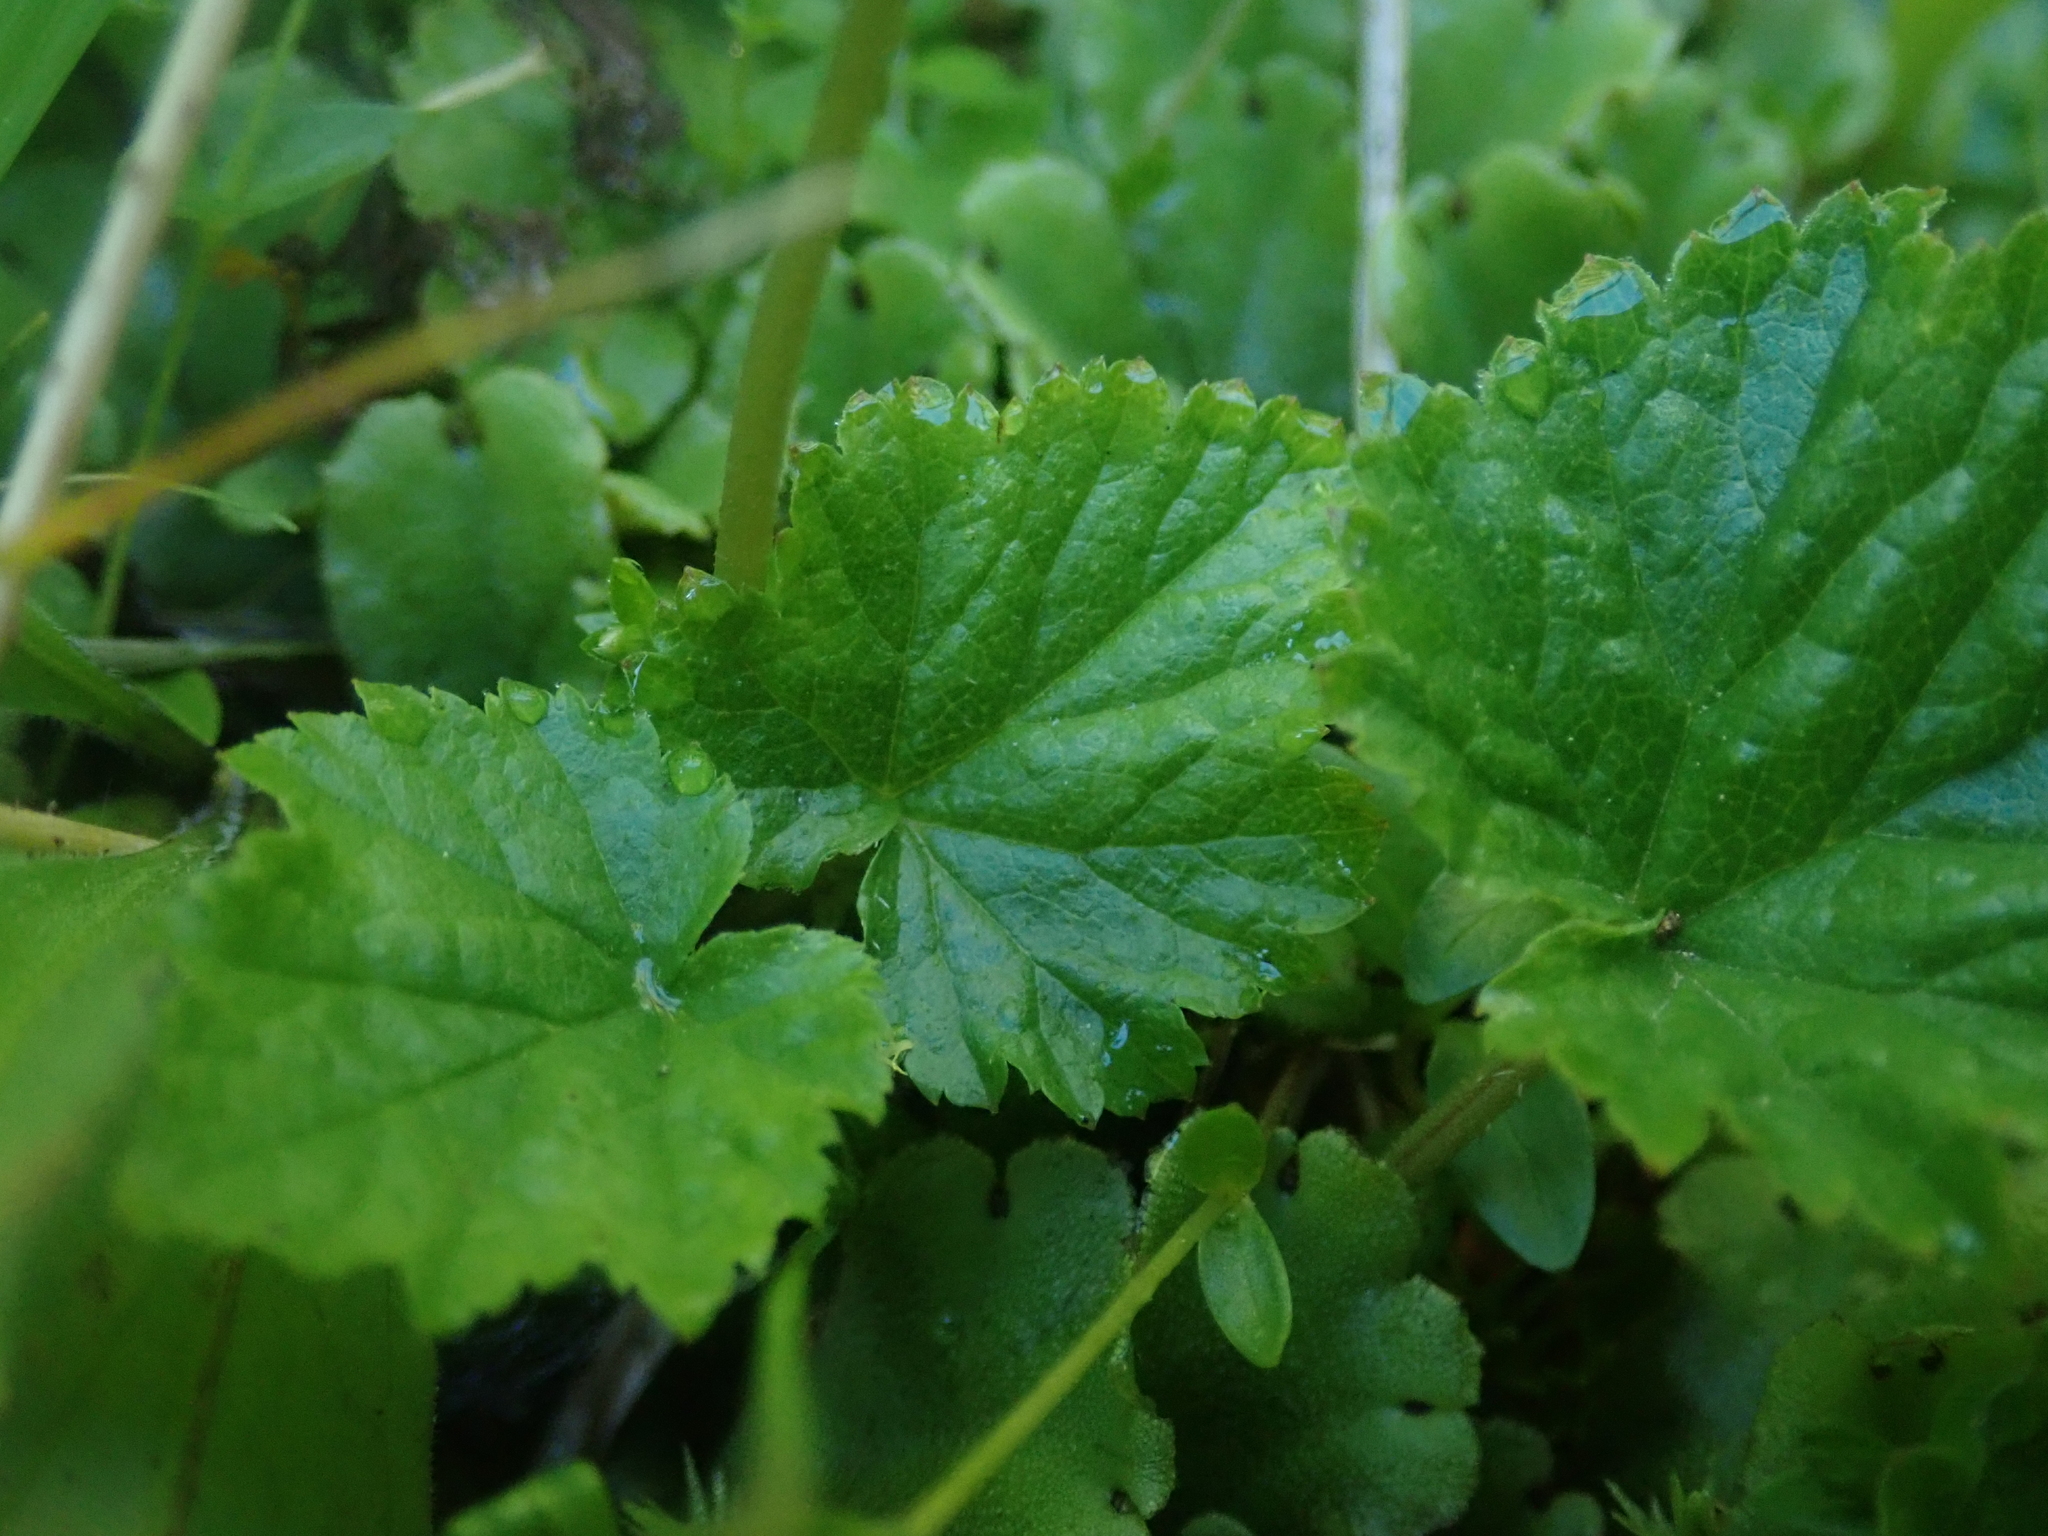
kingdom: Plantae
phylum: Tracheophyta
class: Magnoliopsida
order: Saxifragales
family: Saxifragaceae
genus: Pectiantia
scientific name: Pectiantia pentandra
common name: Alpine bishop's-cap
